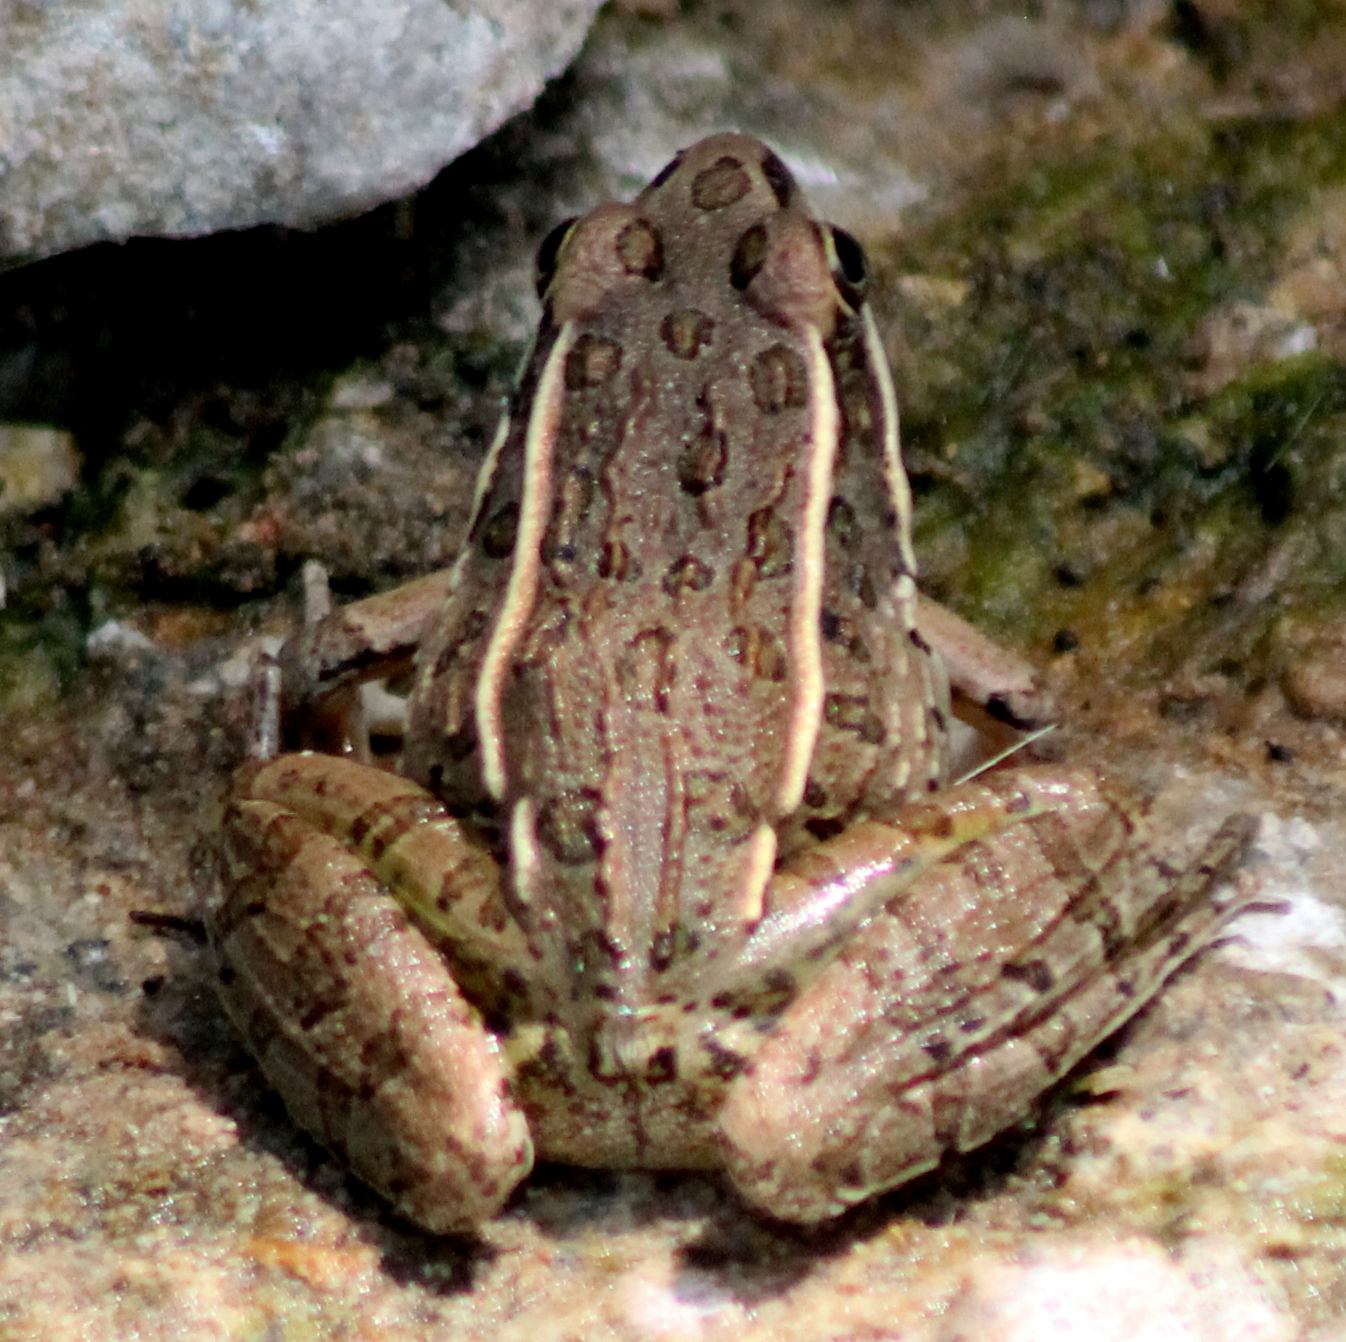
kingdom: Animalia
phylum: Chordata
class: Amphibia
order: Anura
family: Ranidae
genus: Lithobates
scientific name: Lithobates blairi
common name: Plains leopard frog
